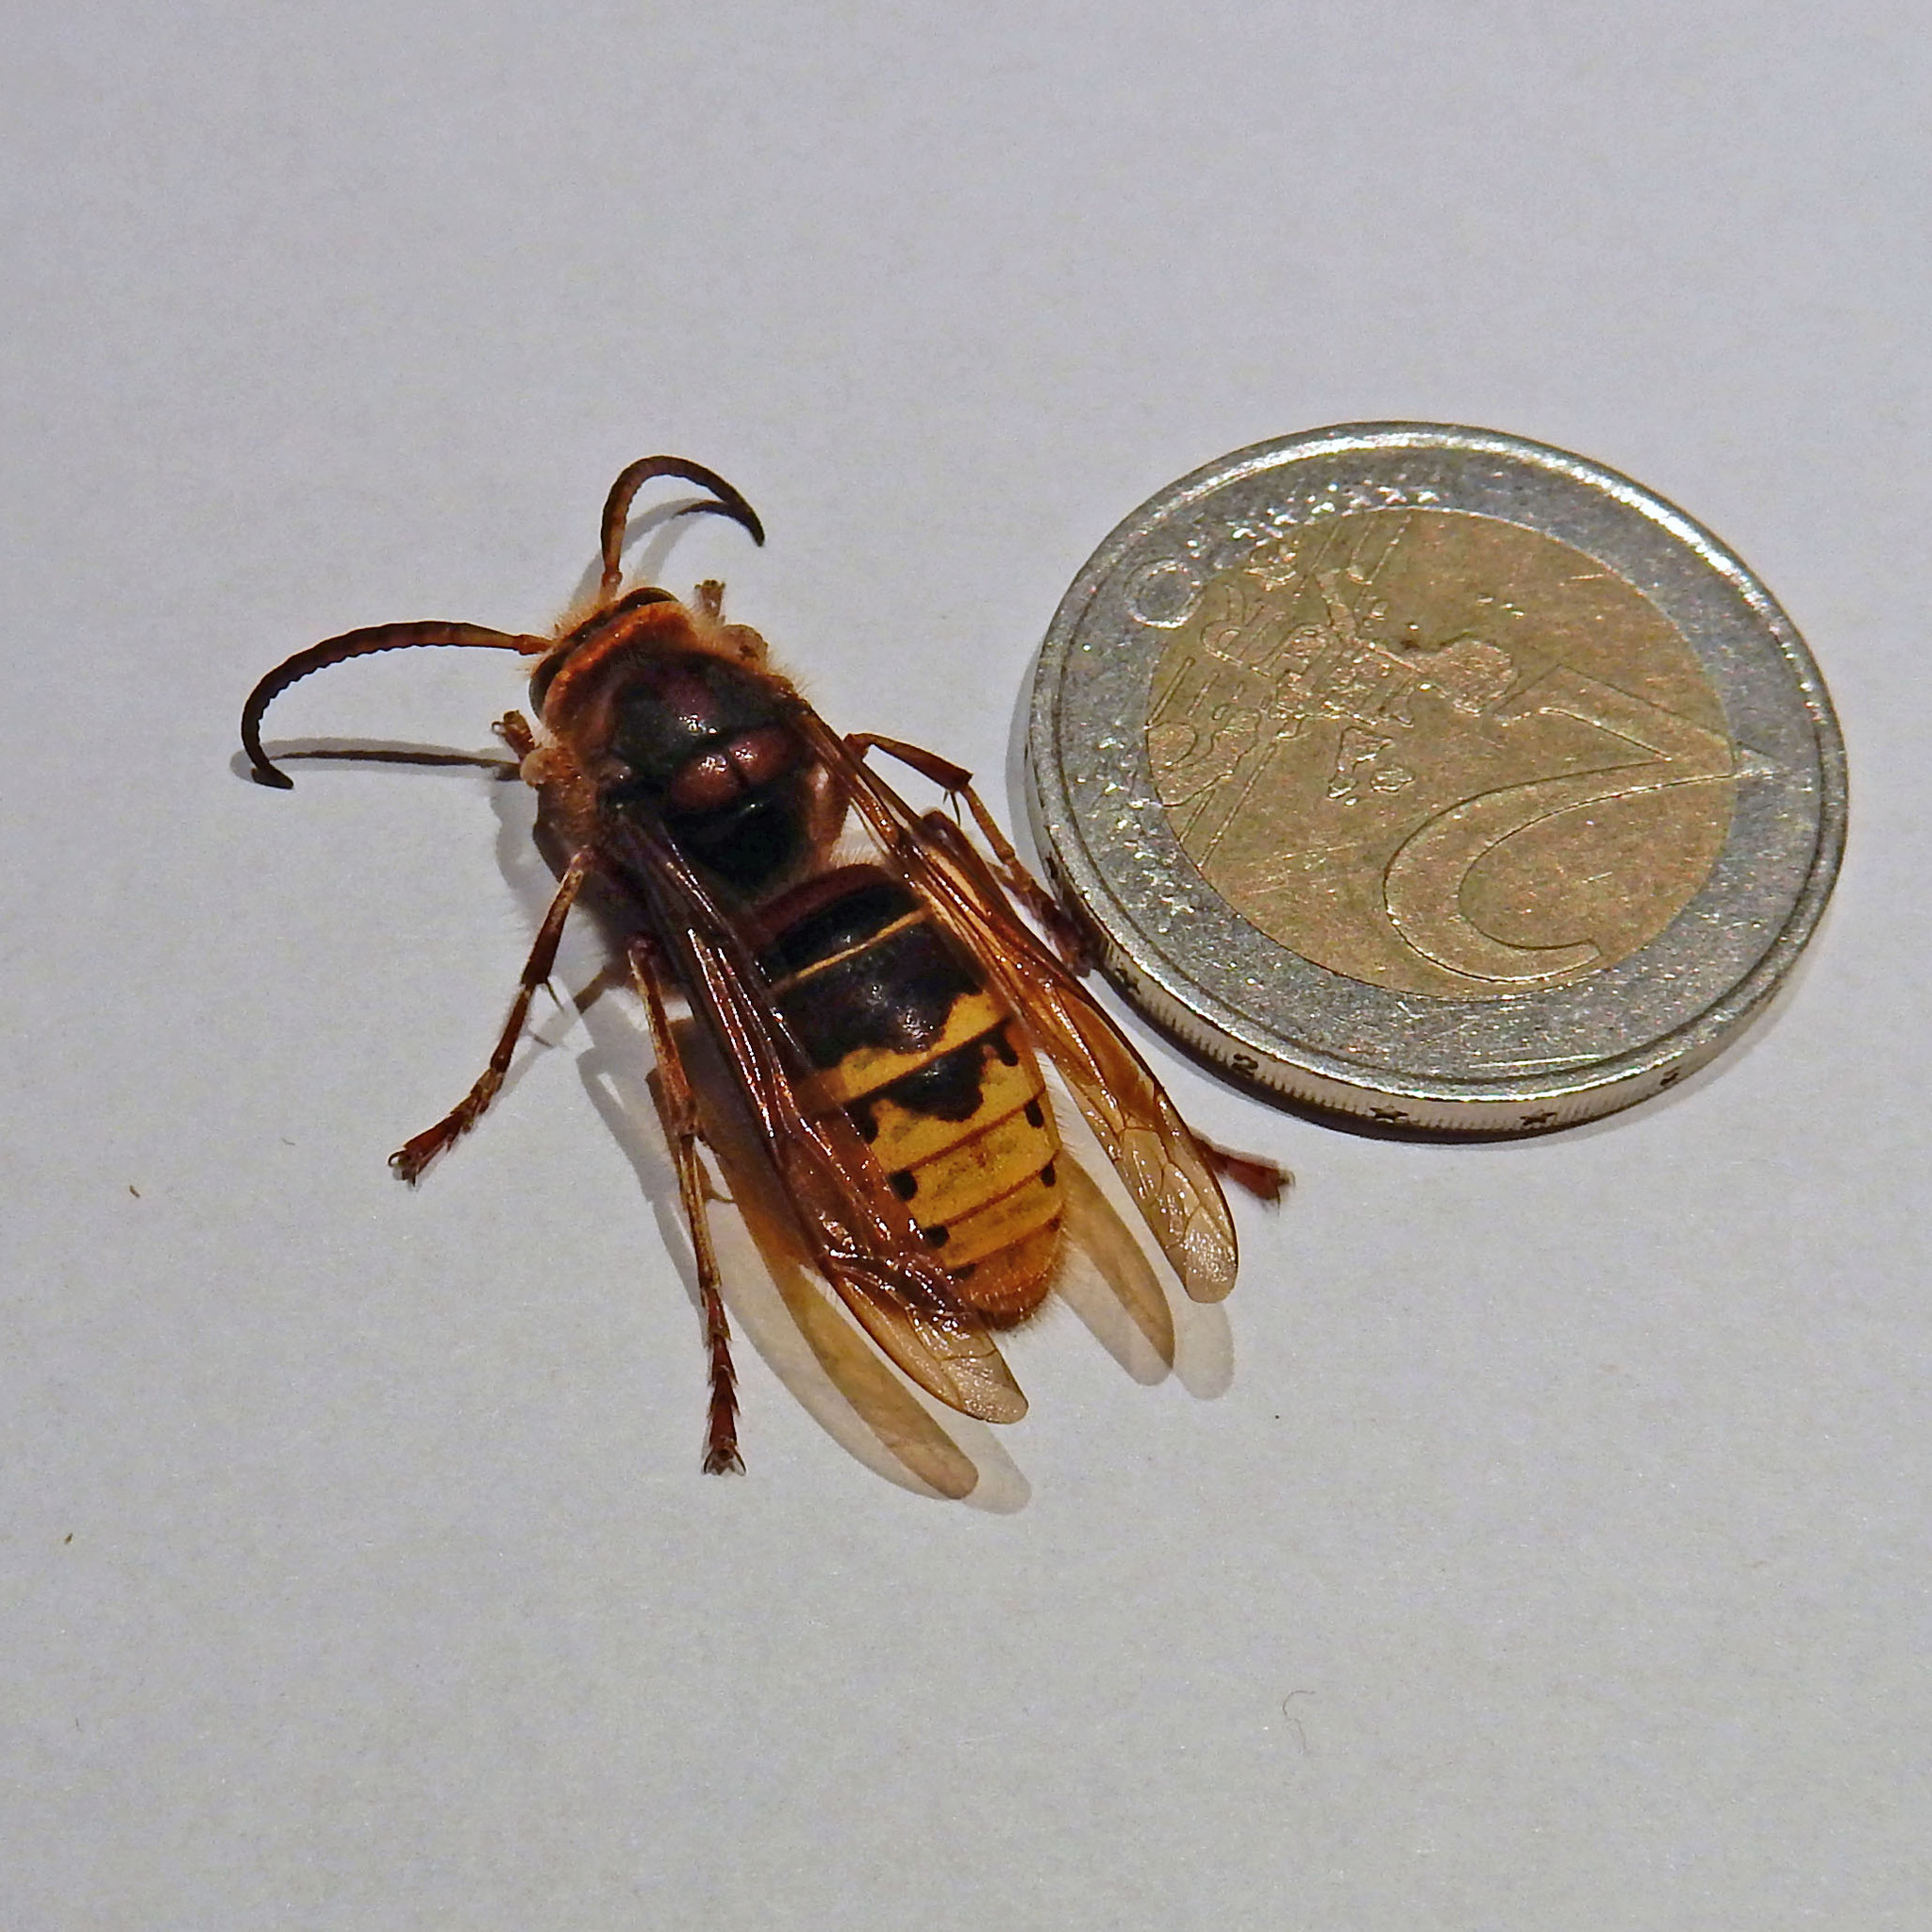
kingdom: Animalia
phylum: Arthropoda
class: Insecta
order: Hymenoptera
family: Vespidae
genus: Vespa
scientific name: Vespa crabro
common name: Hornet
